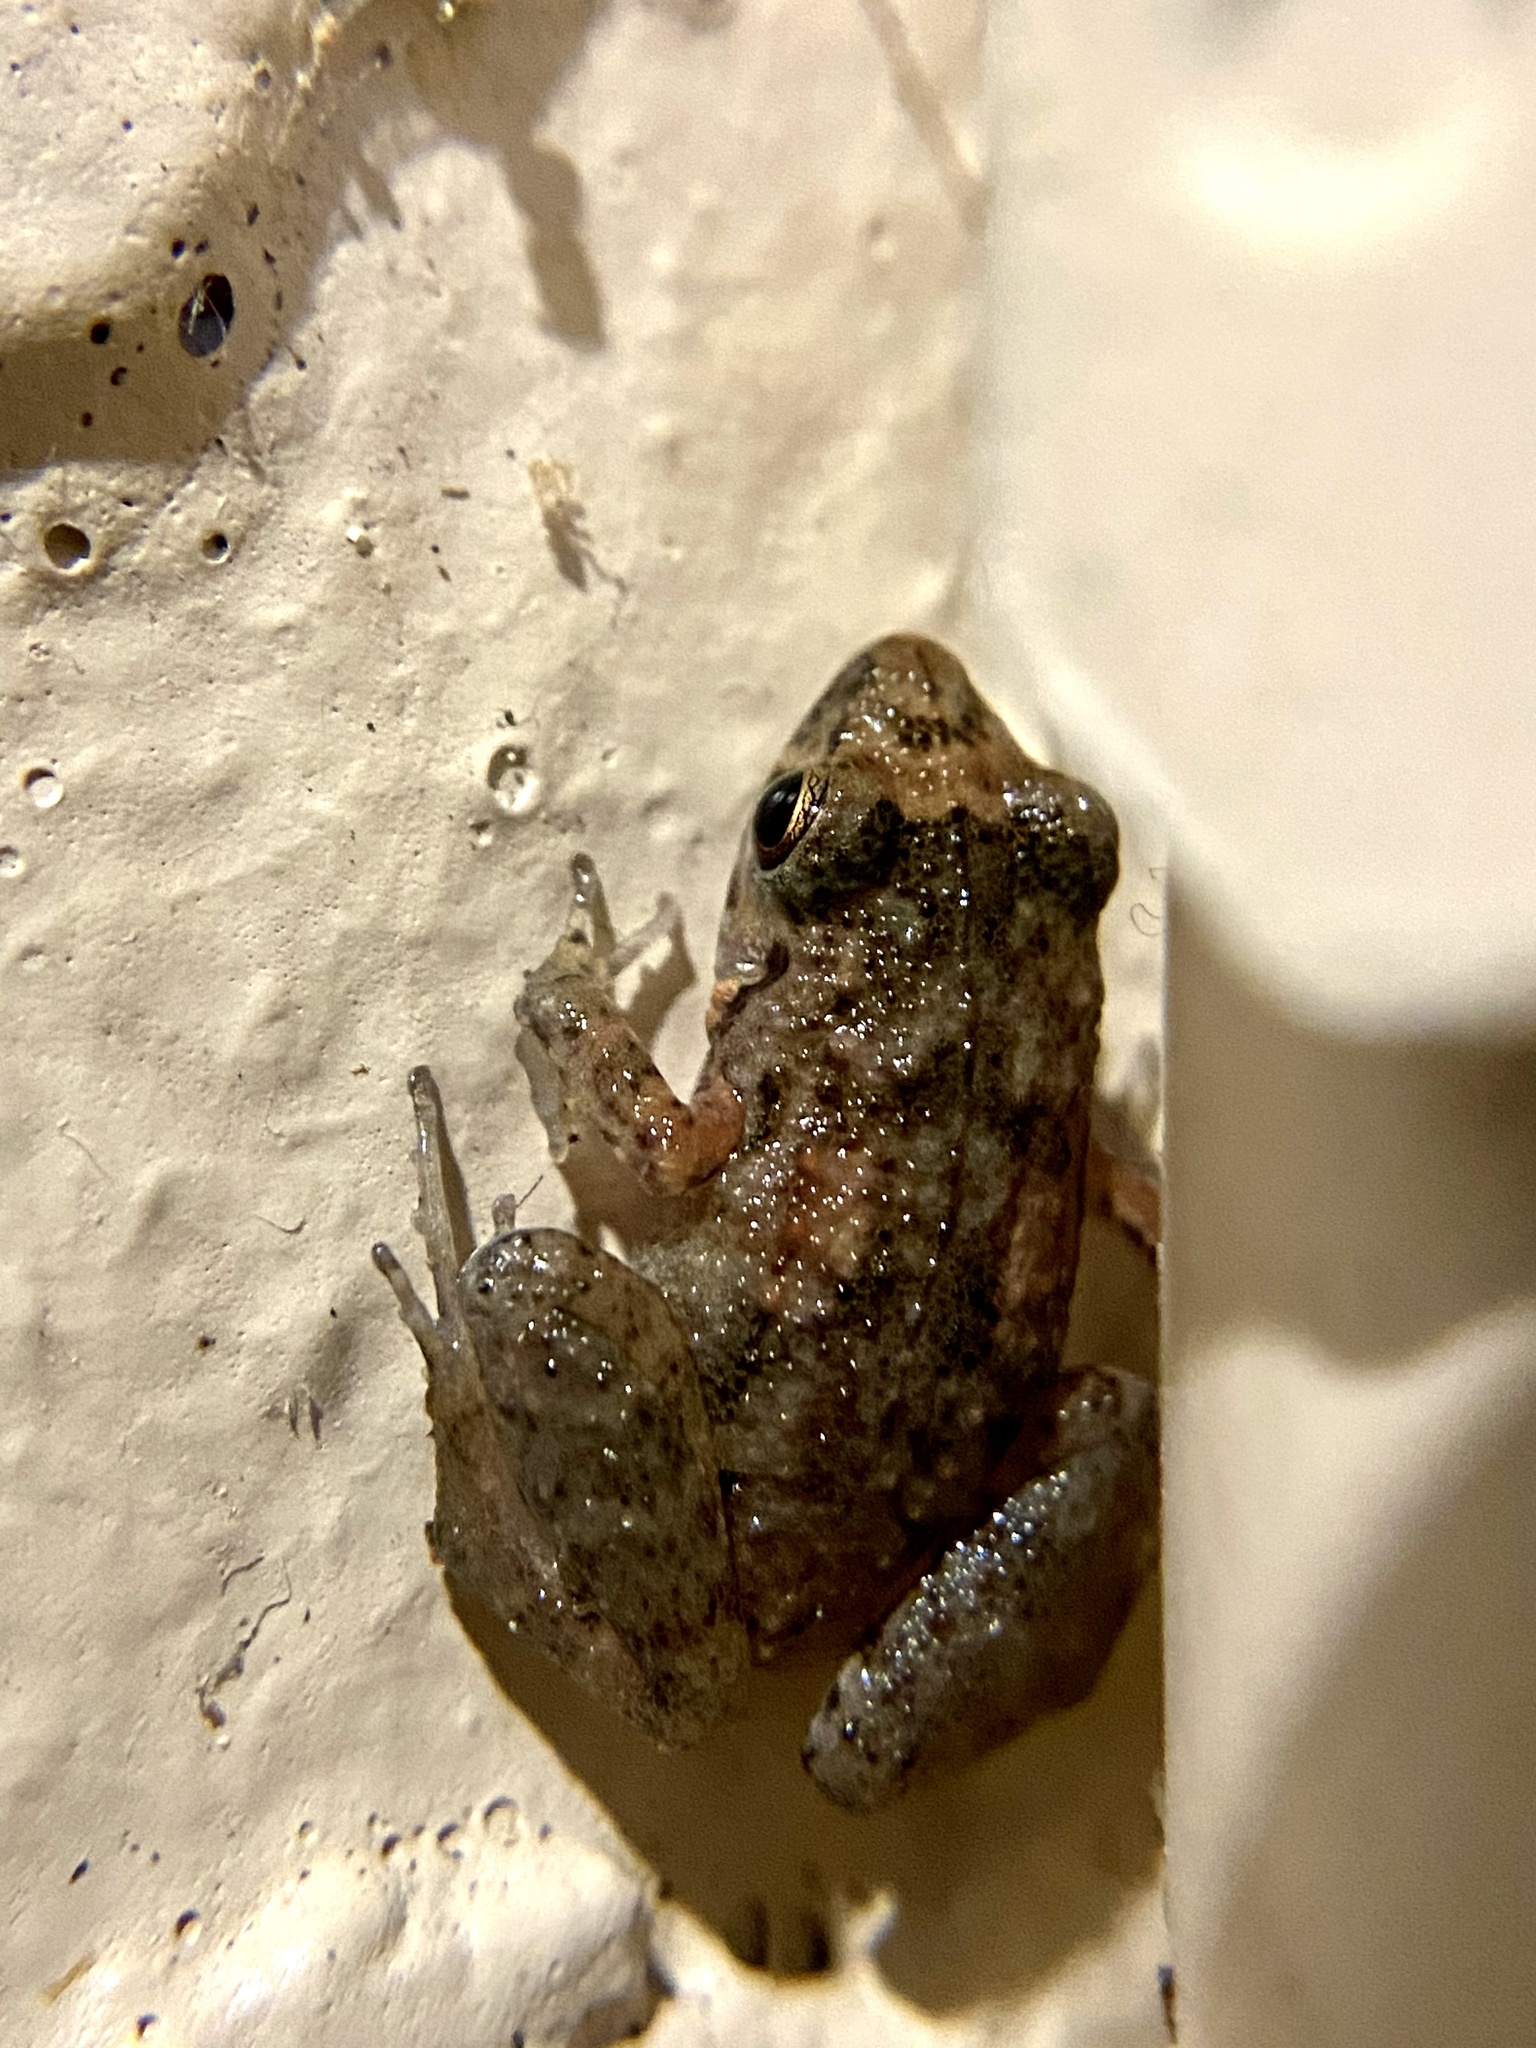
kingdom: Animalia
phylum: Chordata
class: Amphibia
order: Anura
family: Eleutherodactylidae
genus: Eleutherodactylus
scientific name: Eleutherodactylus planirostris
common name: Greenhouse frog
